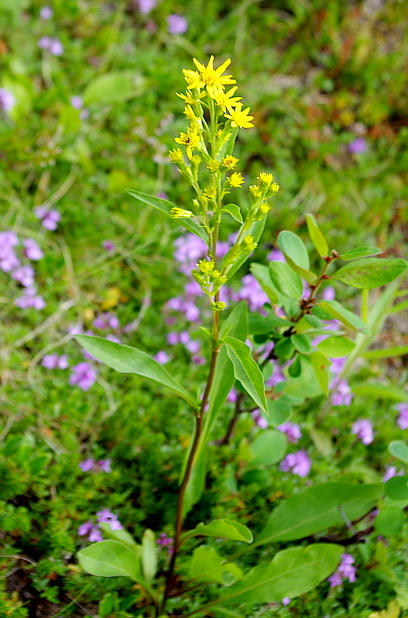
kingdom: Plantae
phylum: Tracheophyta
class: Magnoliopsida
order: Asterales
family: Asteraceae
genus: Solidago
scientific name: Solidago virgaurea
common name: Goldenrod
